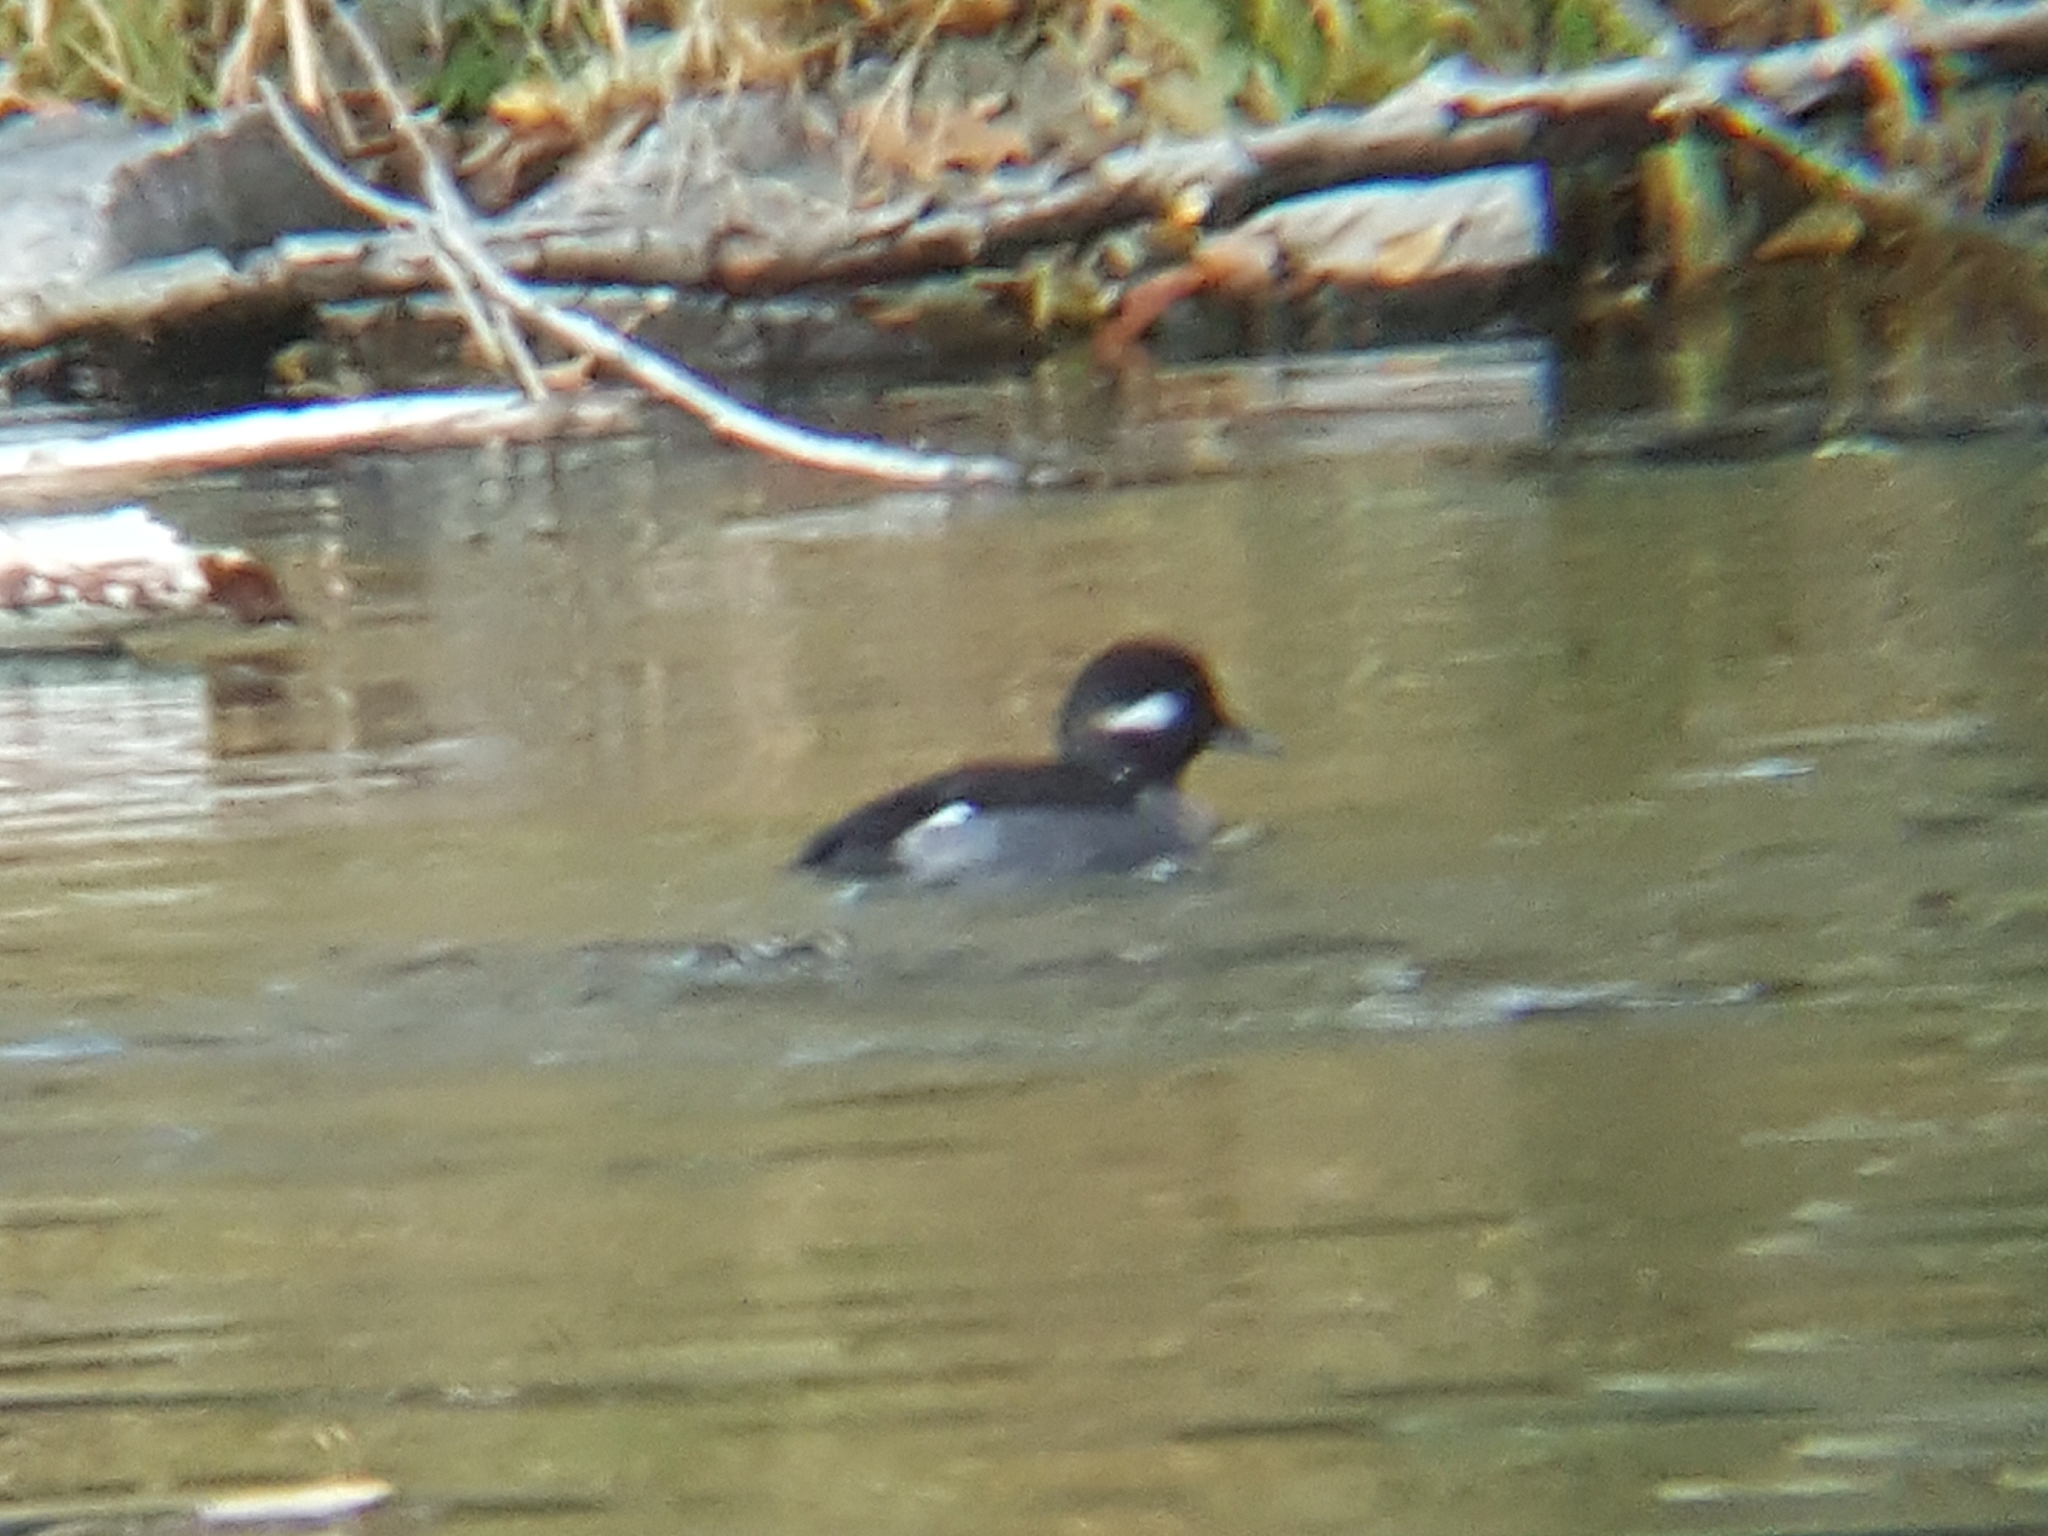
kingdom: Animalia
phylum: Chordata
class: Aves
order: Anseriformes
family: Anatidae
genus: Bucephala
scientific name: Bucephala albeola
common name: Bufflehead
